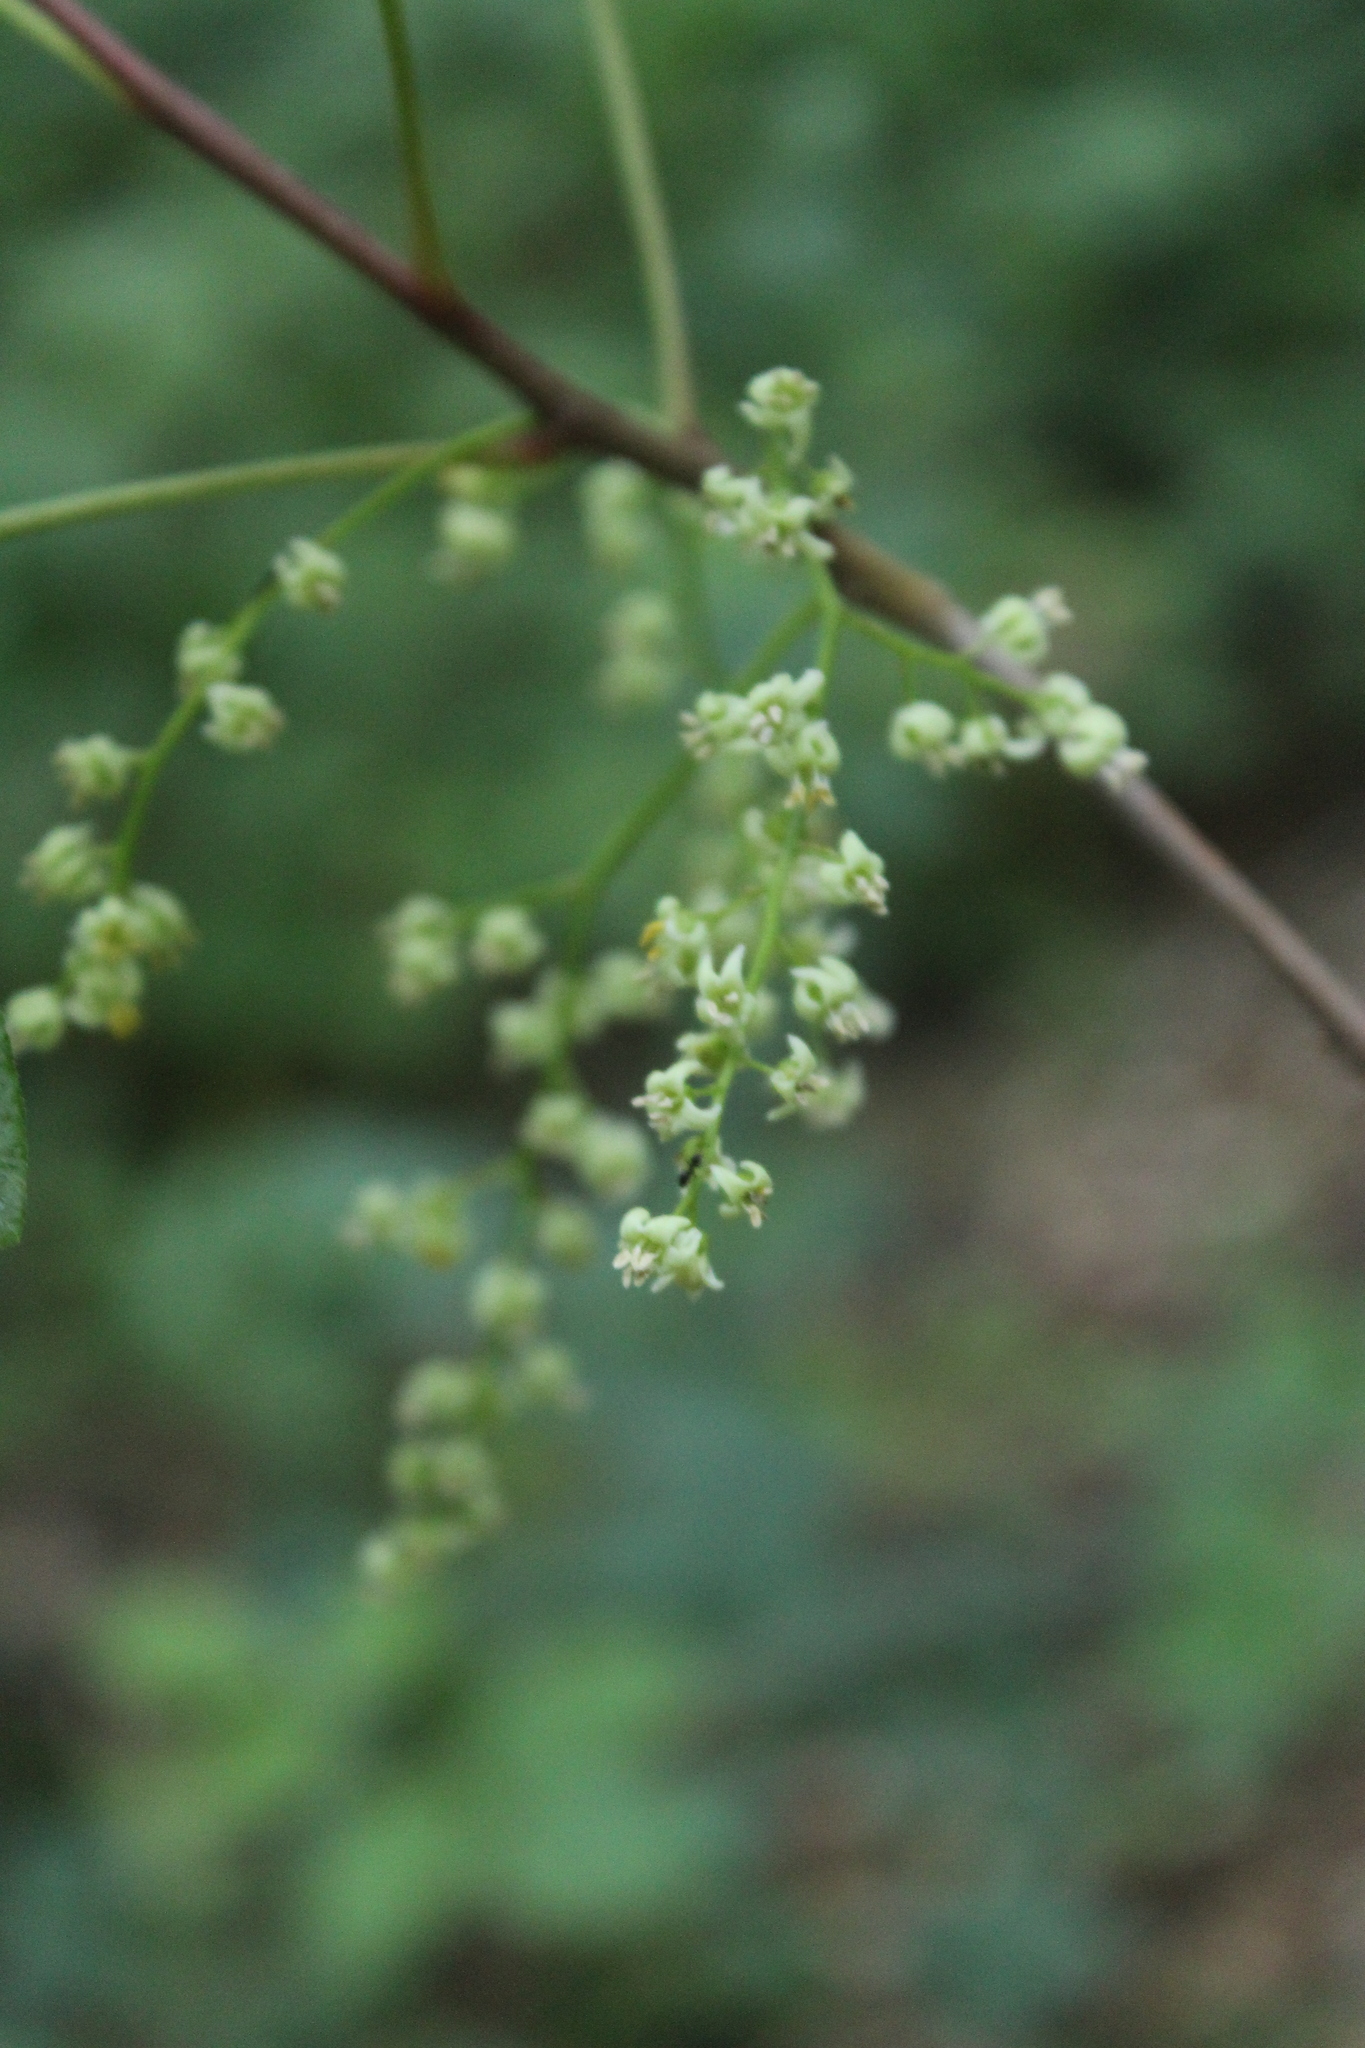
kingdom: Plantae
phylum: Tracheophyta
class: Magnoliopsida
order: Sapindales
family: Anacardiaceae
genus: Toxicodendron
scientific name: Toxicodendron diversilobum
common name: Pacific poison-oak
